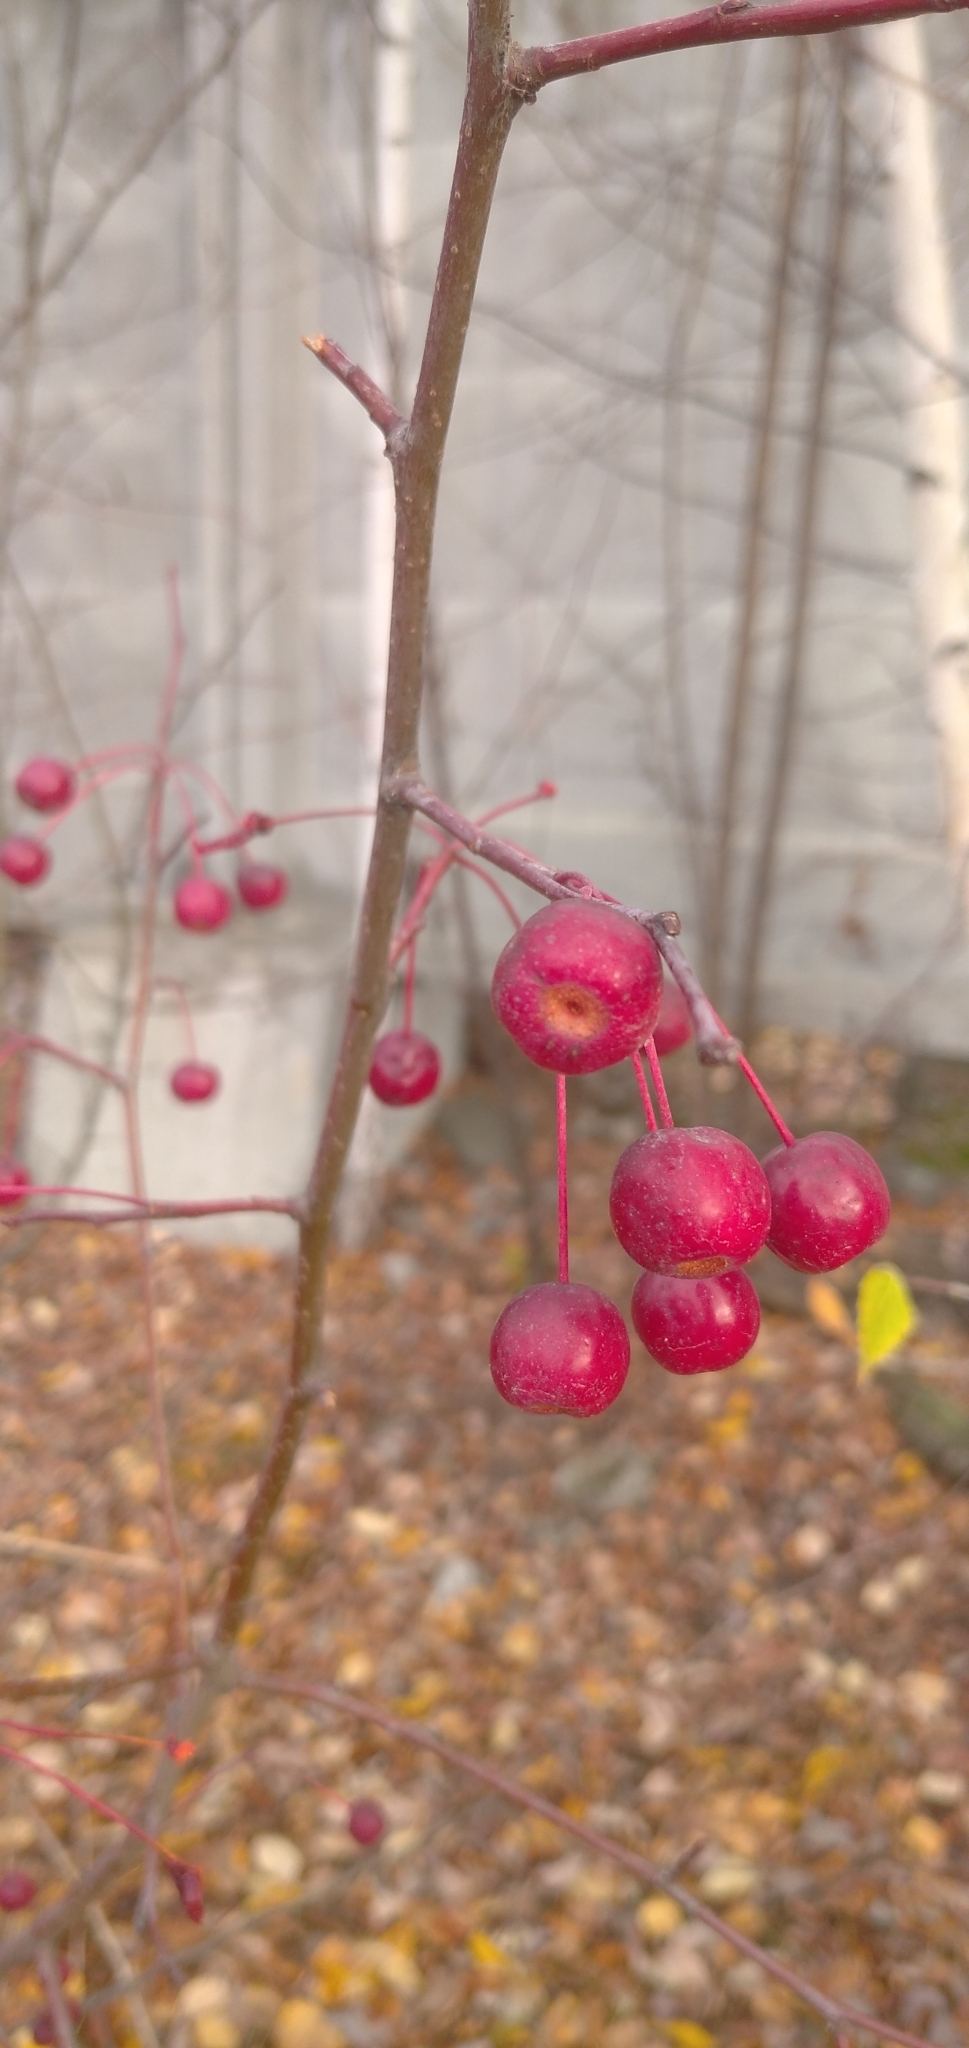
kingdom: Plantae
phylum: Tracheophyta
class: Magnoliopsida
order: Rosales
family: Rosaceae
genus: Malus
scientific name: Malus baccata
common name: Siberian crab
